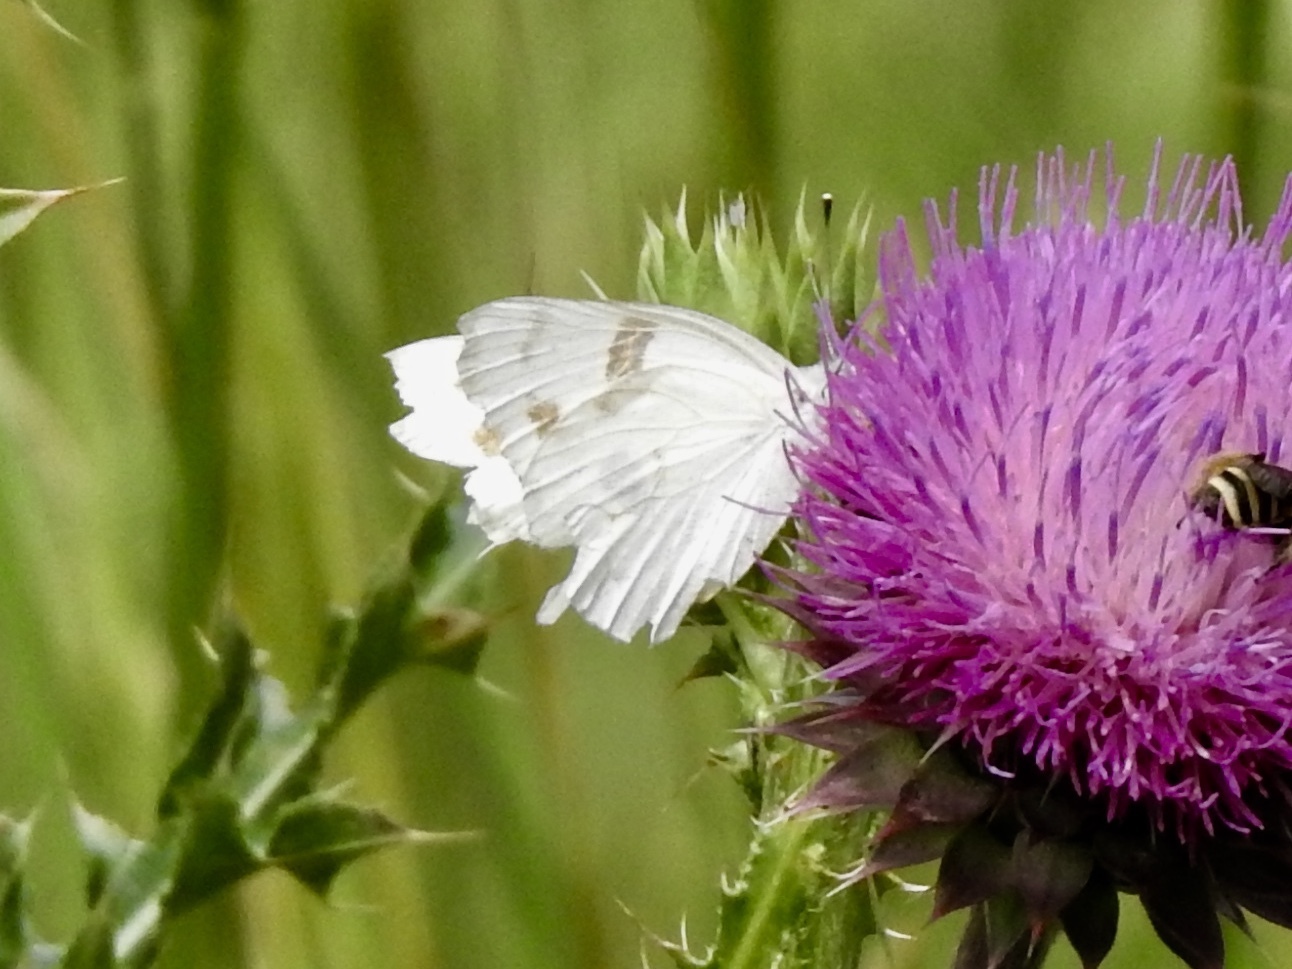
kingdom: Animalia
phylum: Arthropoda
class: Insecta
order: Lepidoptera
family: Pieridae
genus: Pontia
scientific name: Pontia protodice
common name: Checkered white
